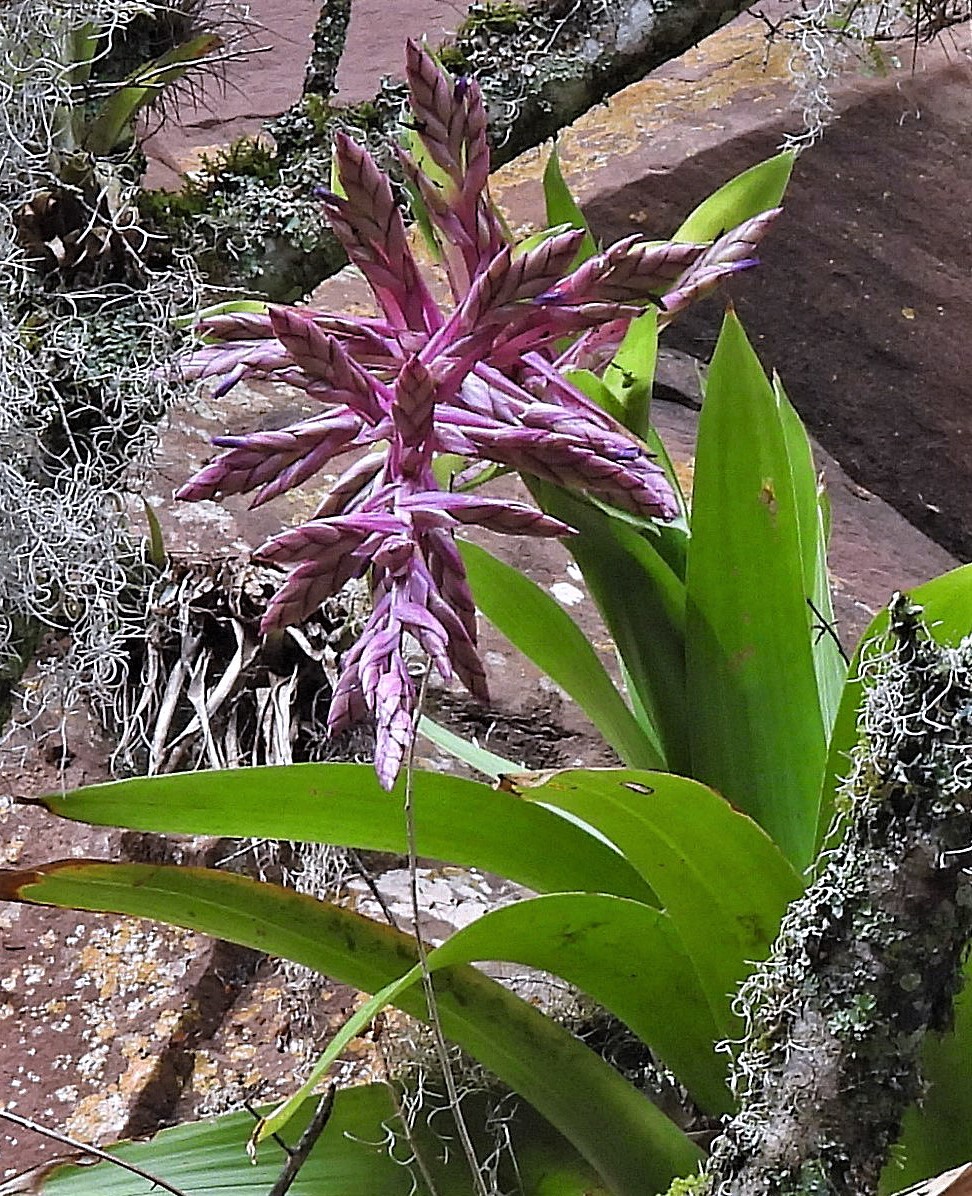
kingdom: Plantae
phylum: Tracheophyta
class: Liliopsida
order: Poales
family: Bromeliaceae
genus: Tillandsia
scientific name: Tillandsia australis
